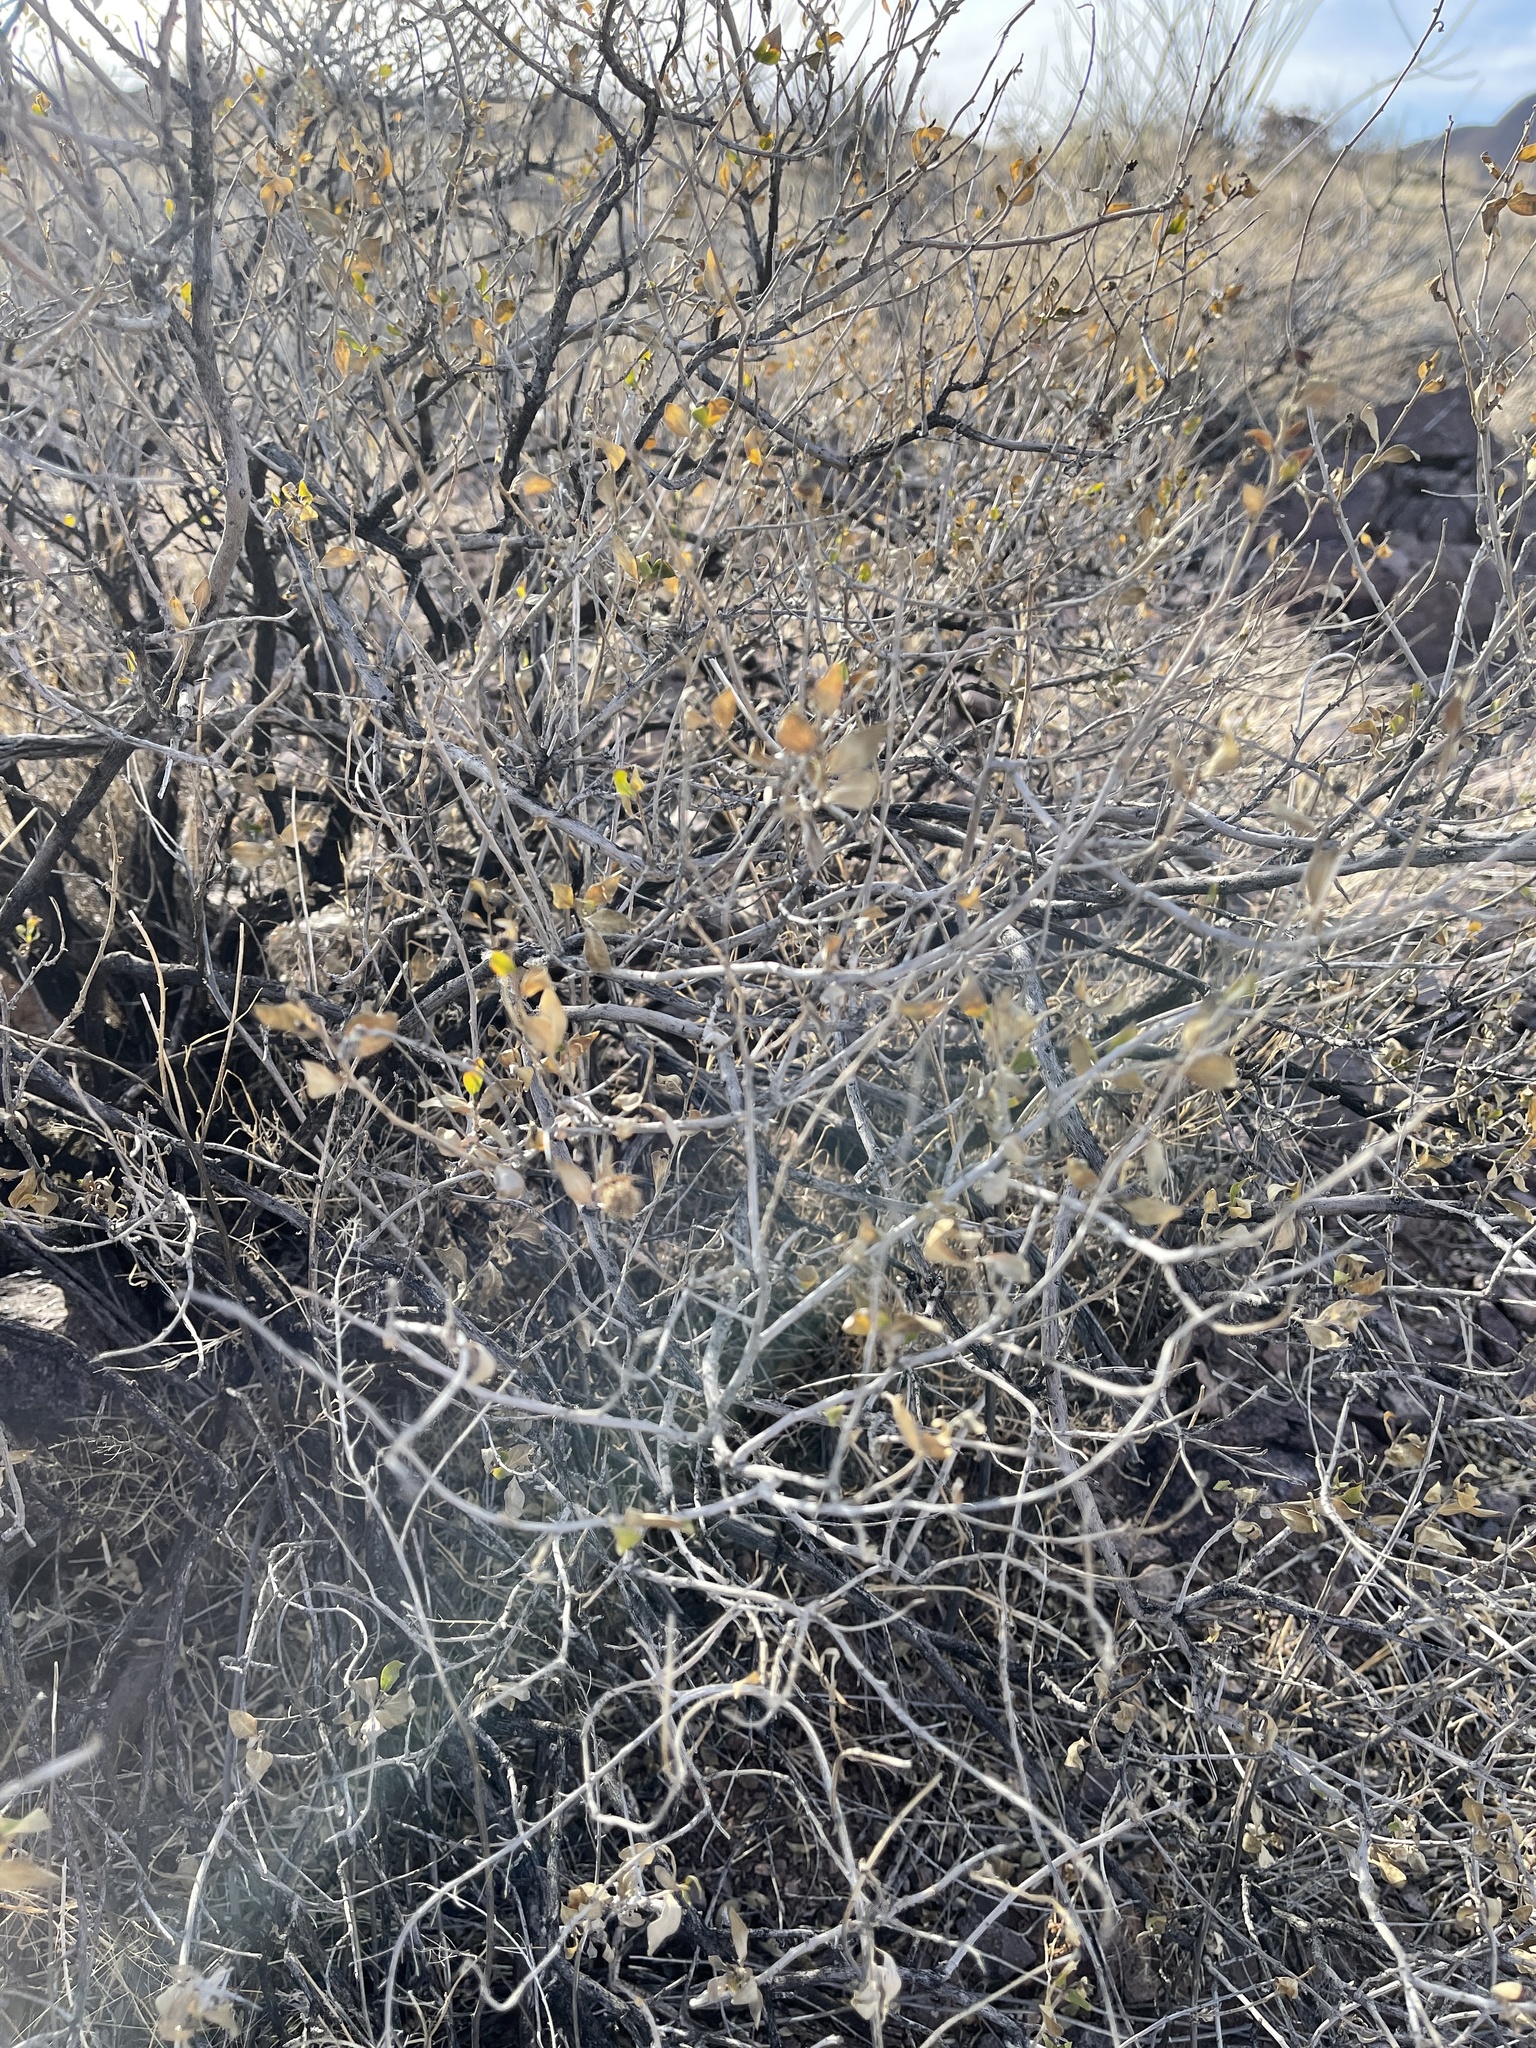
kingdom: Plantae
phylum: Tracheophyta
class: Magnoliopsida
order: Asterales
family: Asteraceae
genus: Flourensia
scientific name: Flourensia cernua
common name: Varnishbush
